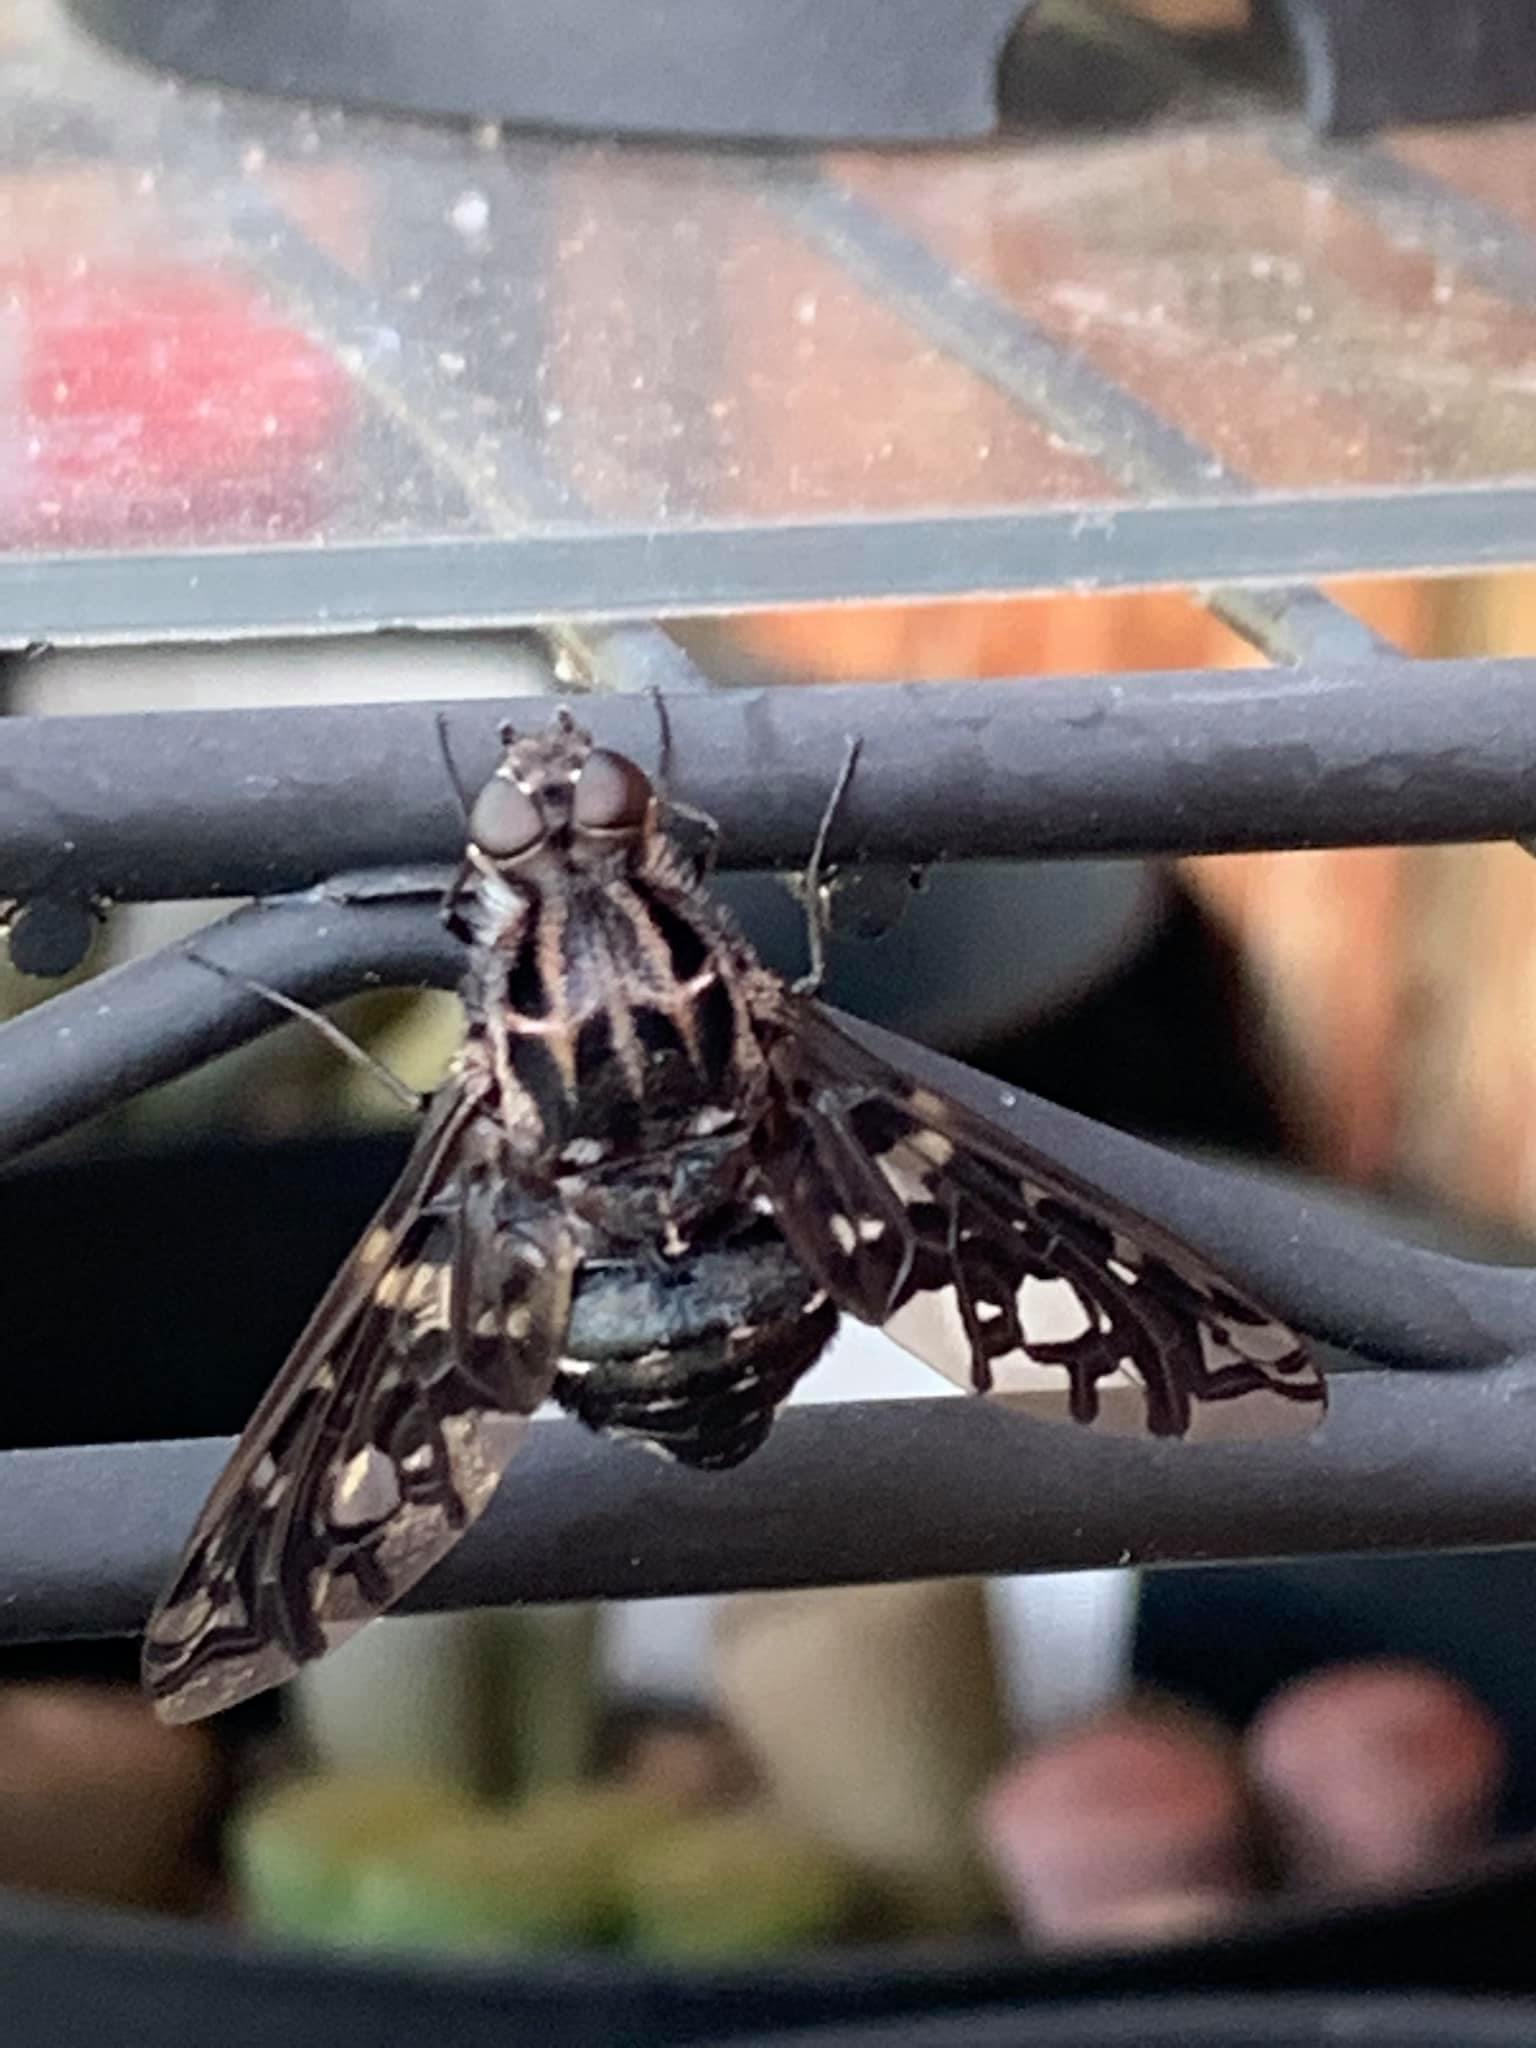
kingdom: Animalia
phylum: Arthropoda
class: Insecta
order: Diptera
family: Bombyliidae
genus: Xenox
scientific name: Xenox tigrinus
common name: Tiger bee fly
